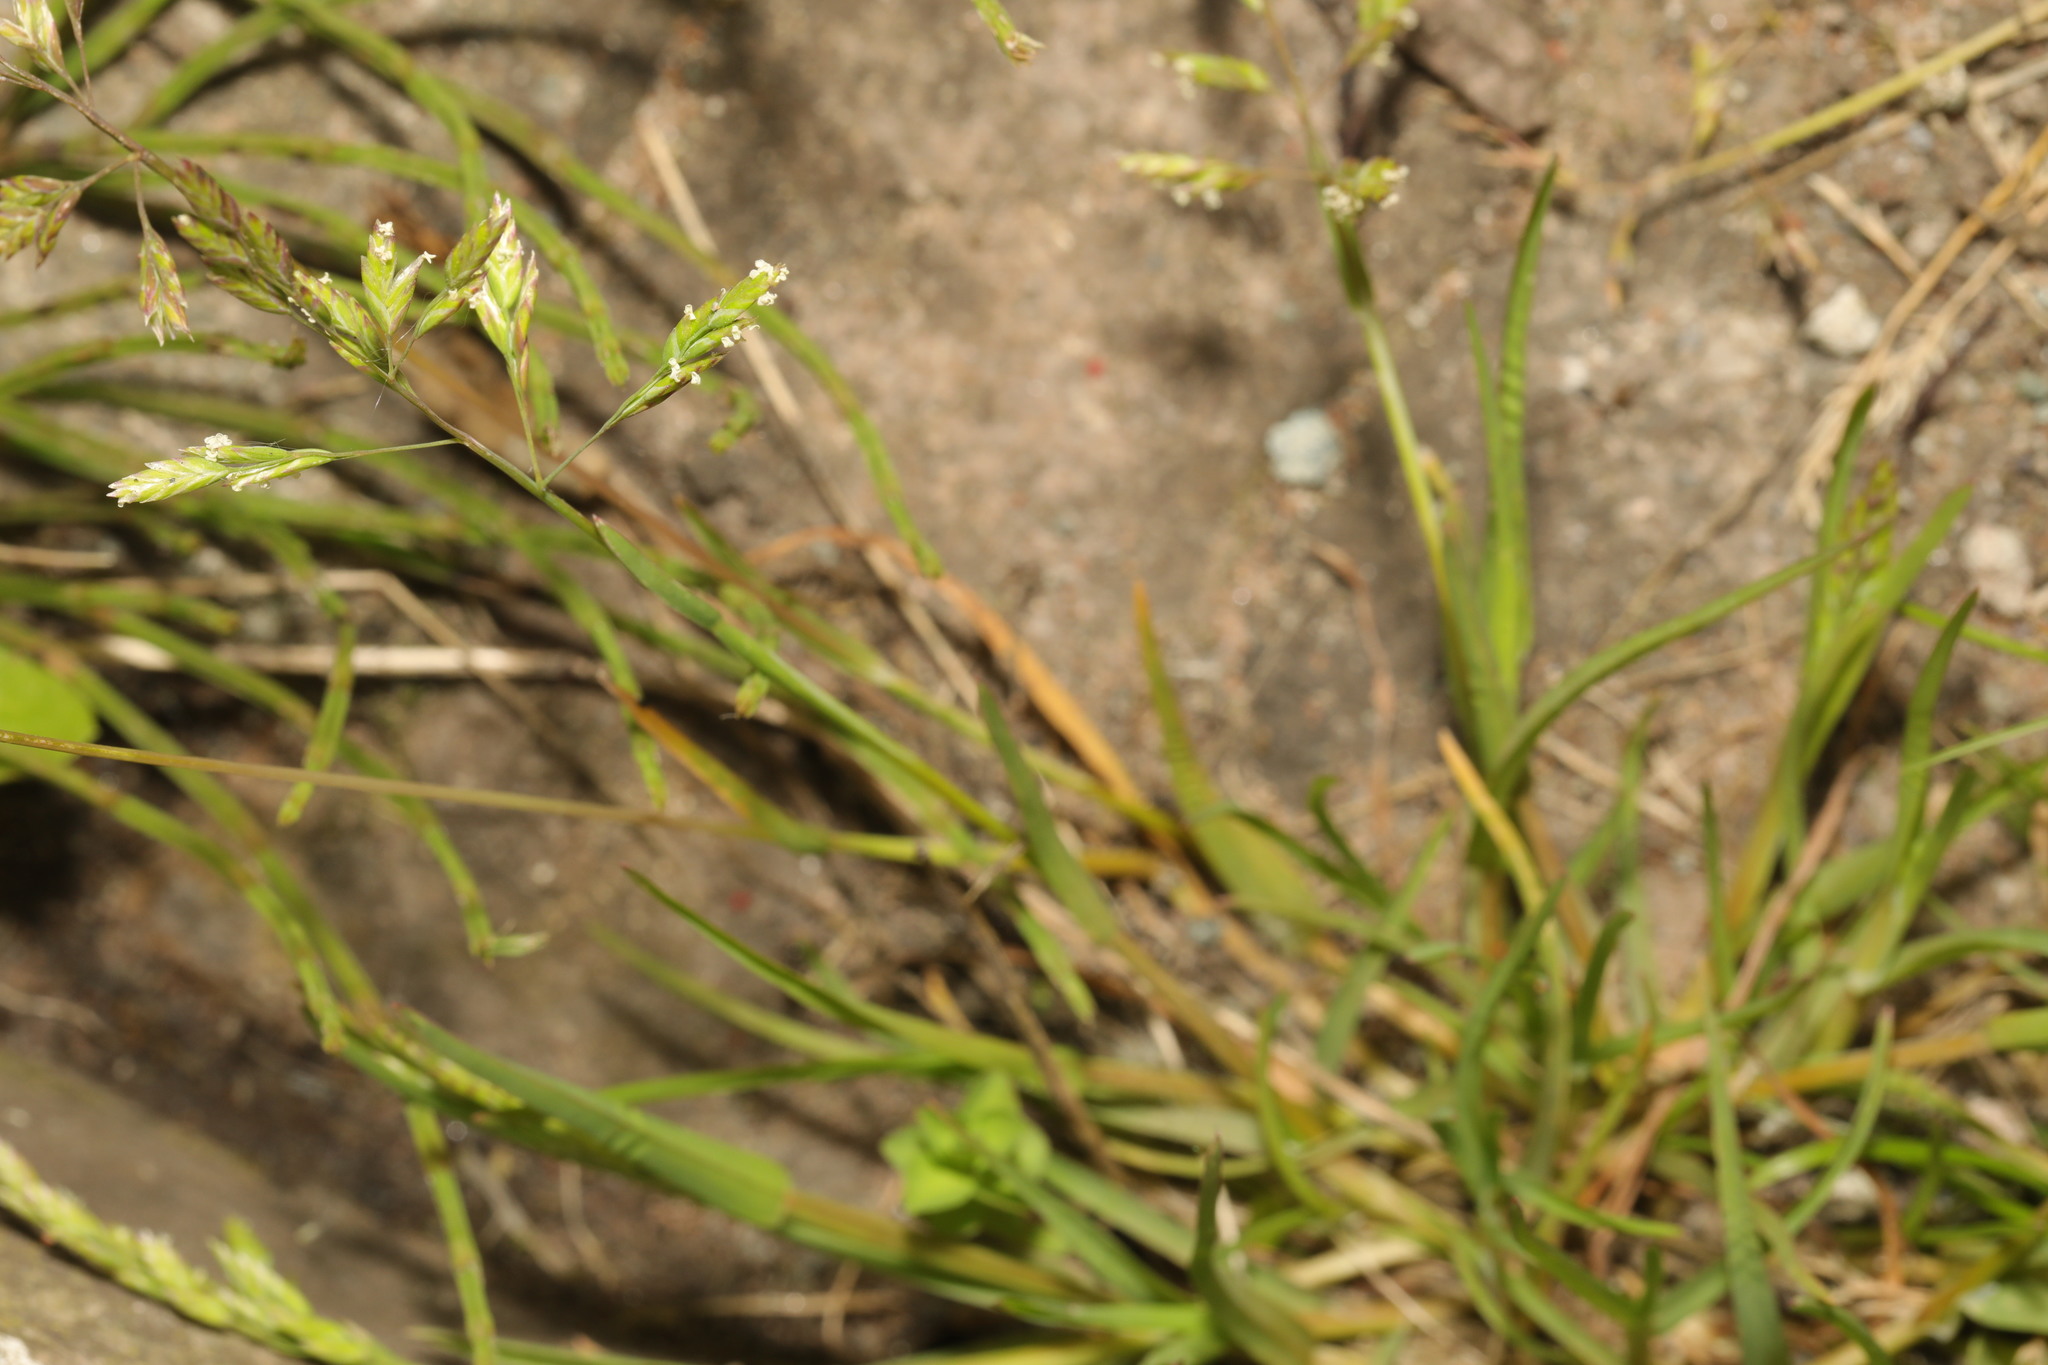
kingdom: Plantae
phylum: Tracheophyta
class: Liliopsida
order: Poales
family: Poaceae
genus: Poa
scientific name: Poa annua
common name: Annual bluegrass
